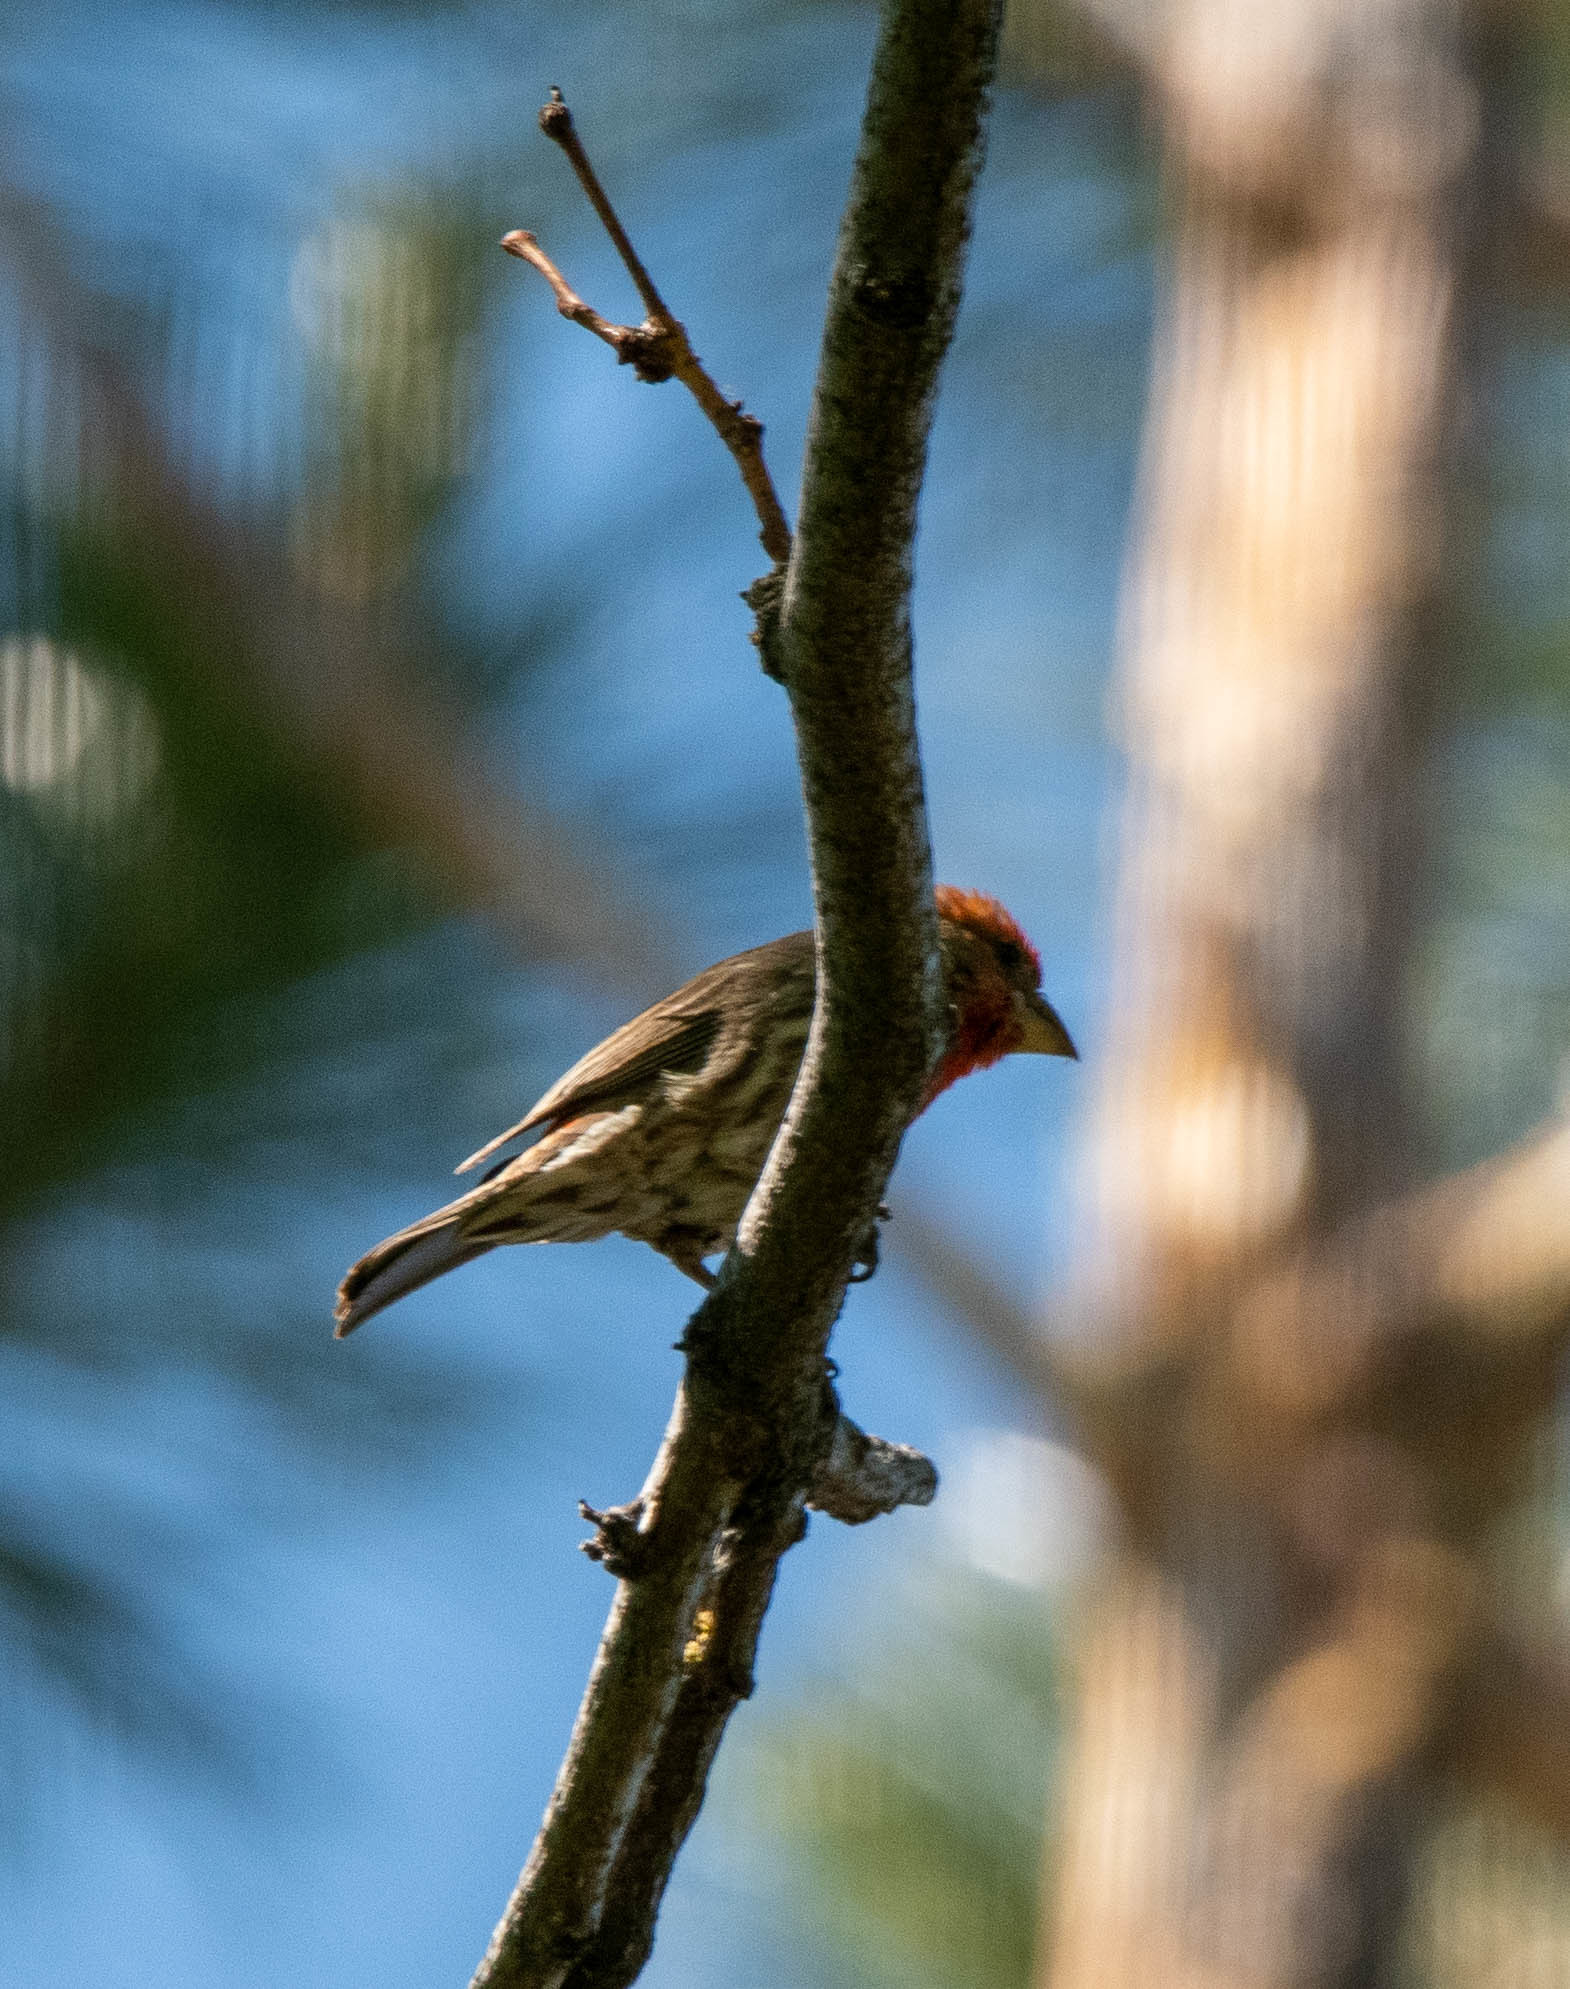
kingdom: Animalia
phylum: Chordata
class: Aves
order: Passeriformes
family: Fringillidae
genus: Haemorhous
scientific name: Haemorhous mexicanus
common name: House finch
